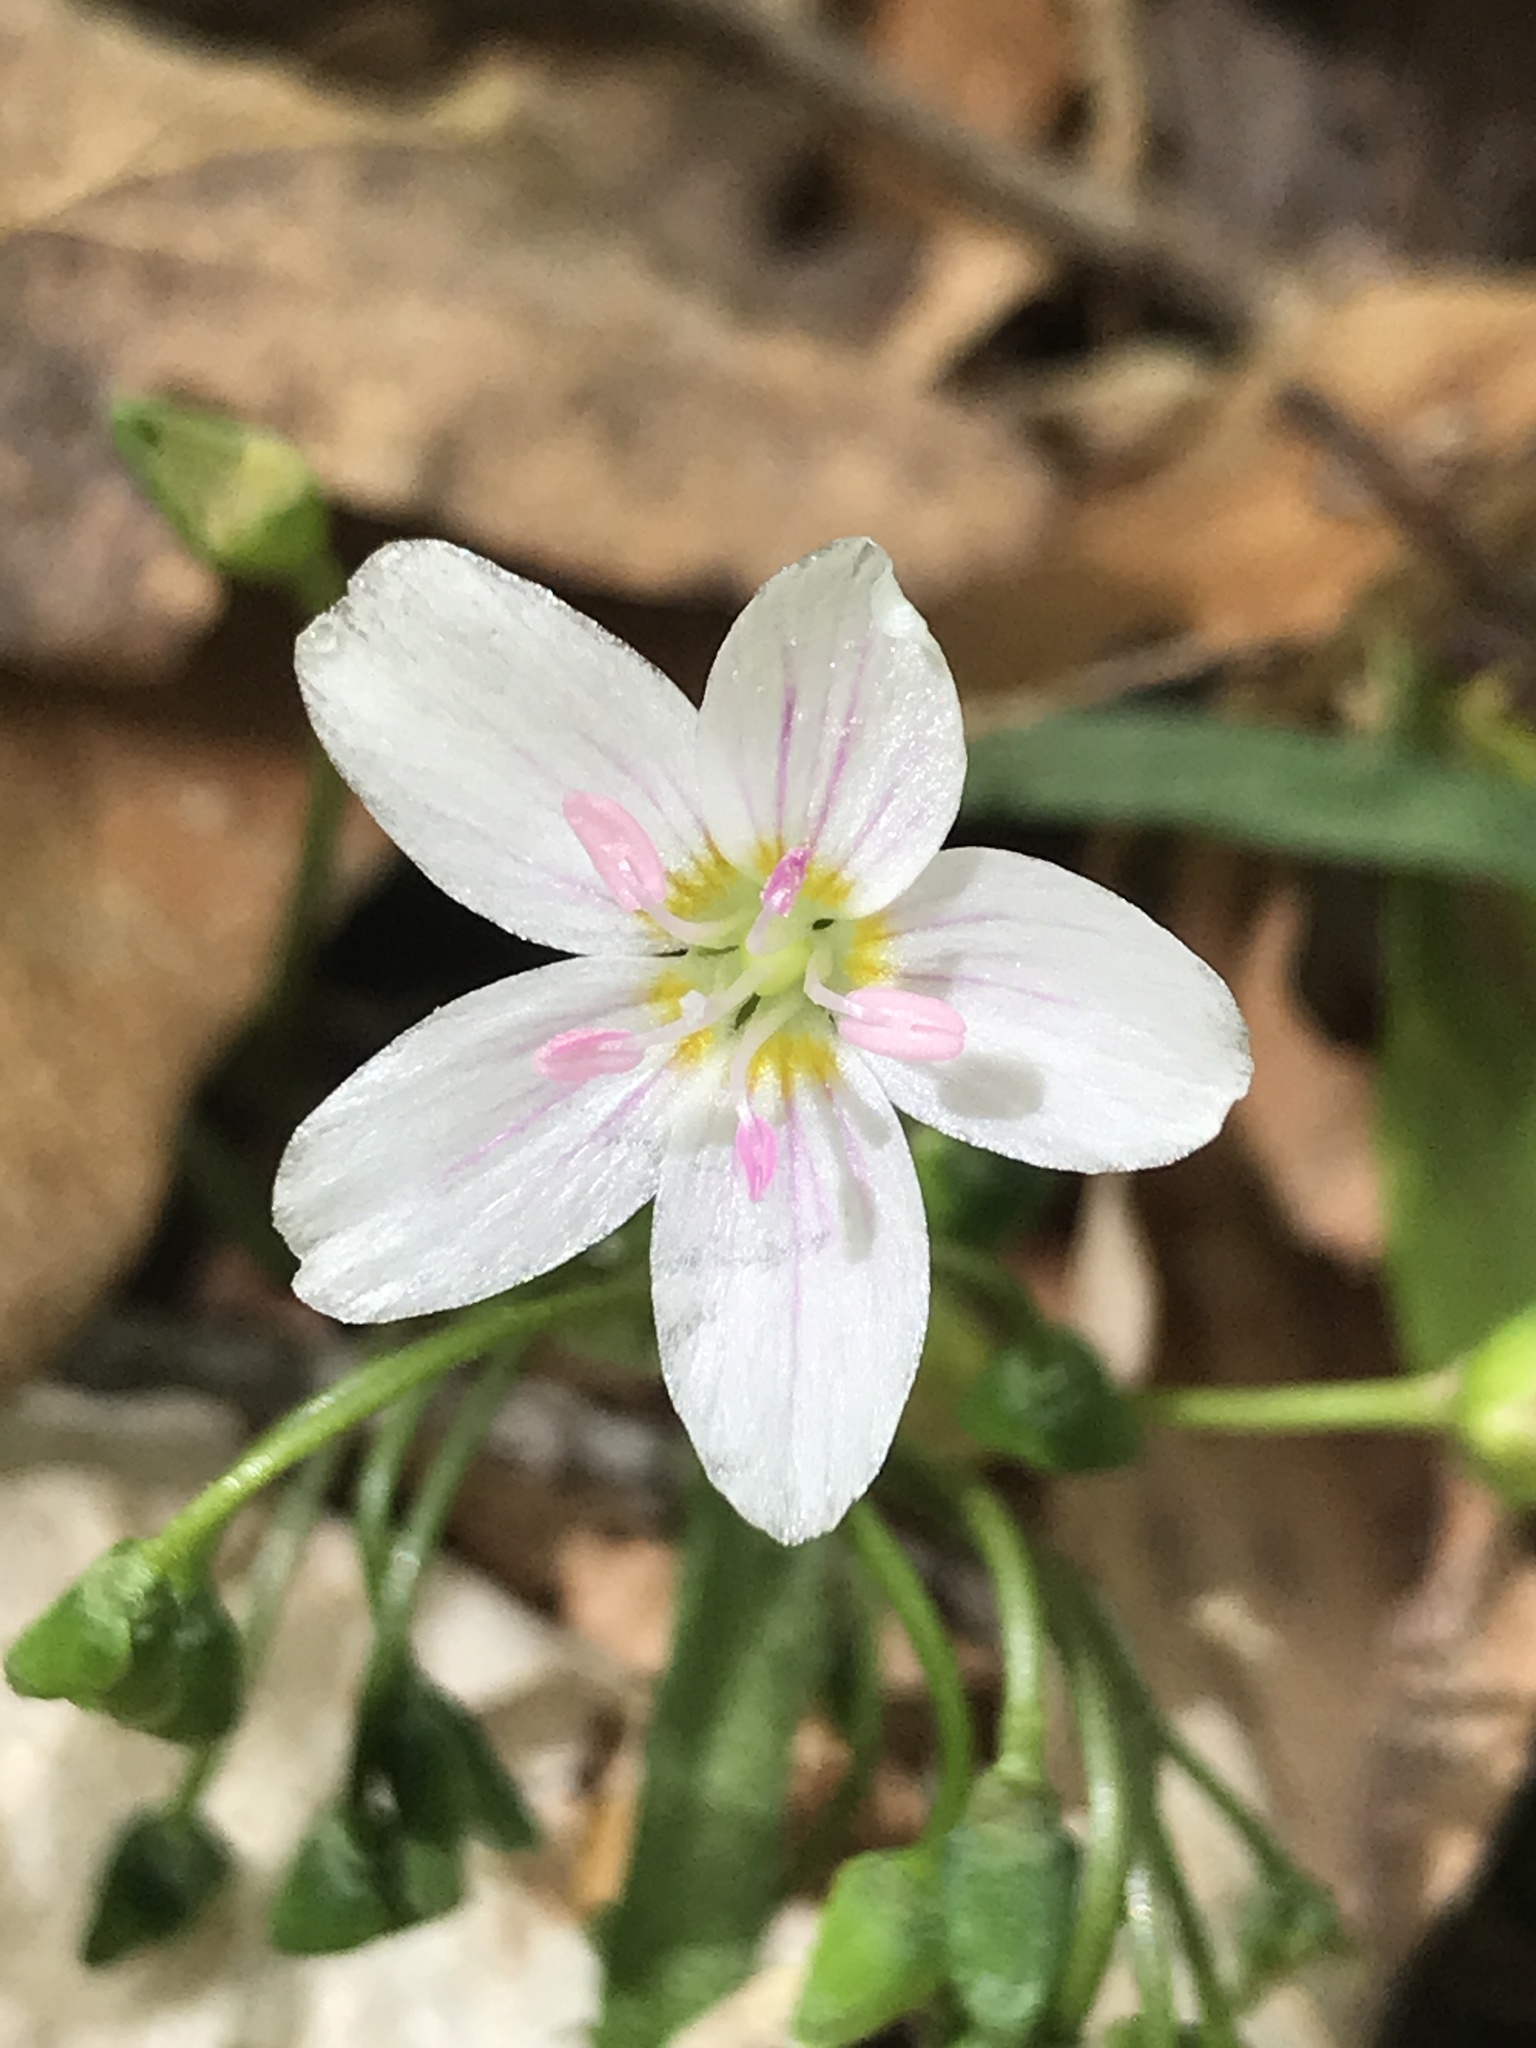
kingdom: Plantae
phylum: Tracheophyta
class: Magnoliopsida
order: Caryophyllales
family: Montiaceae
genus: Claytonia
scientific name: Claytonia virginica
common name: Virginia springbeauty
